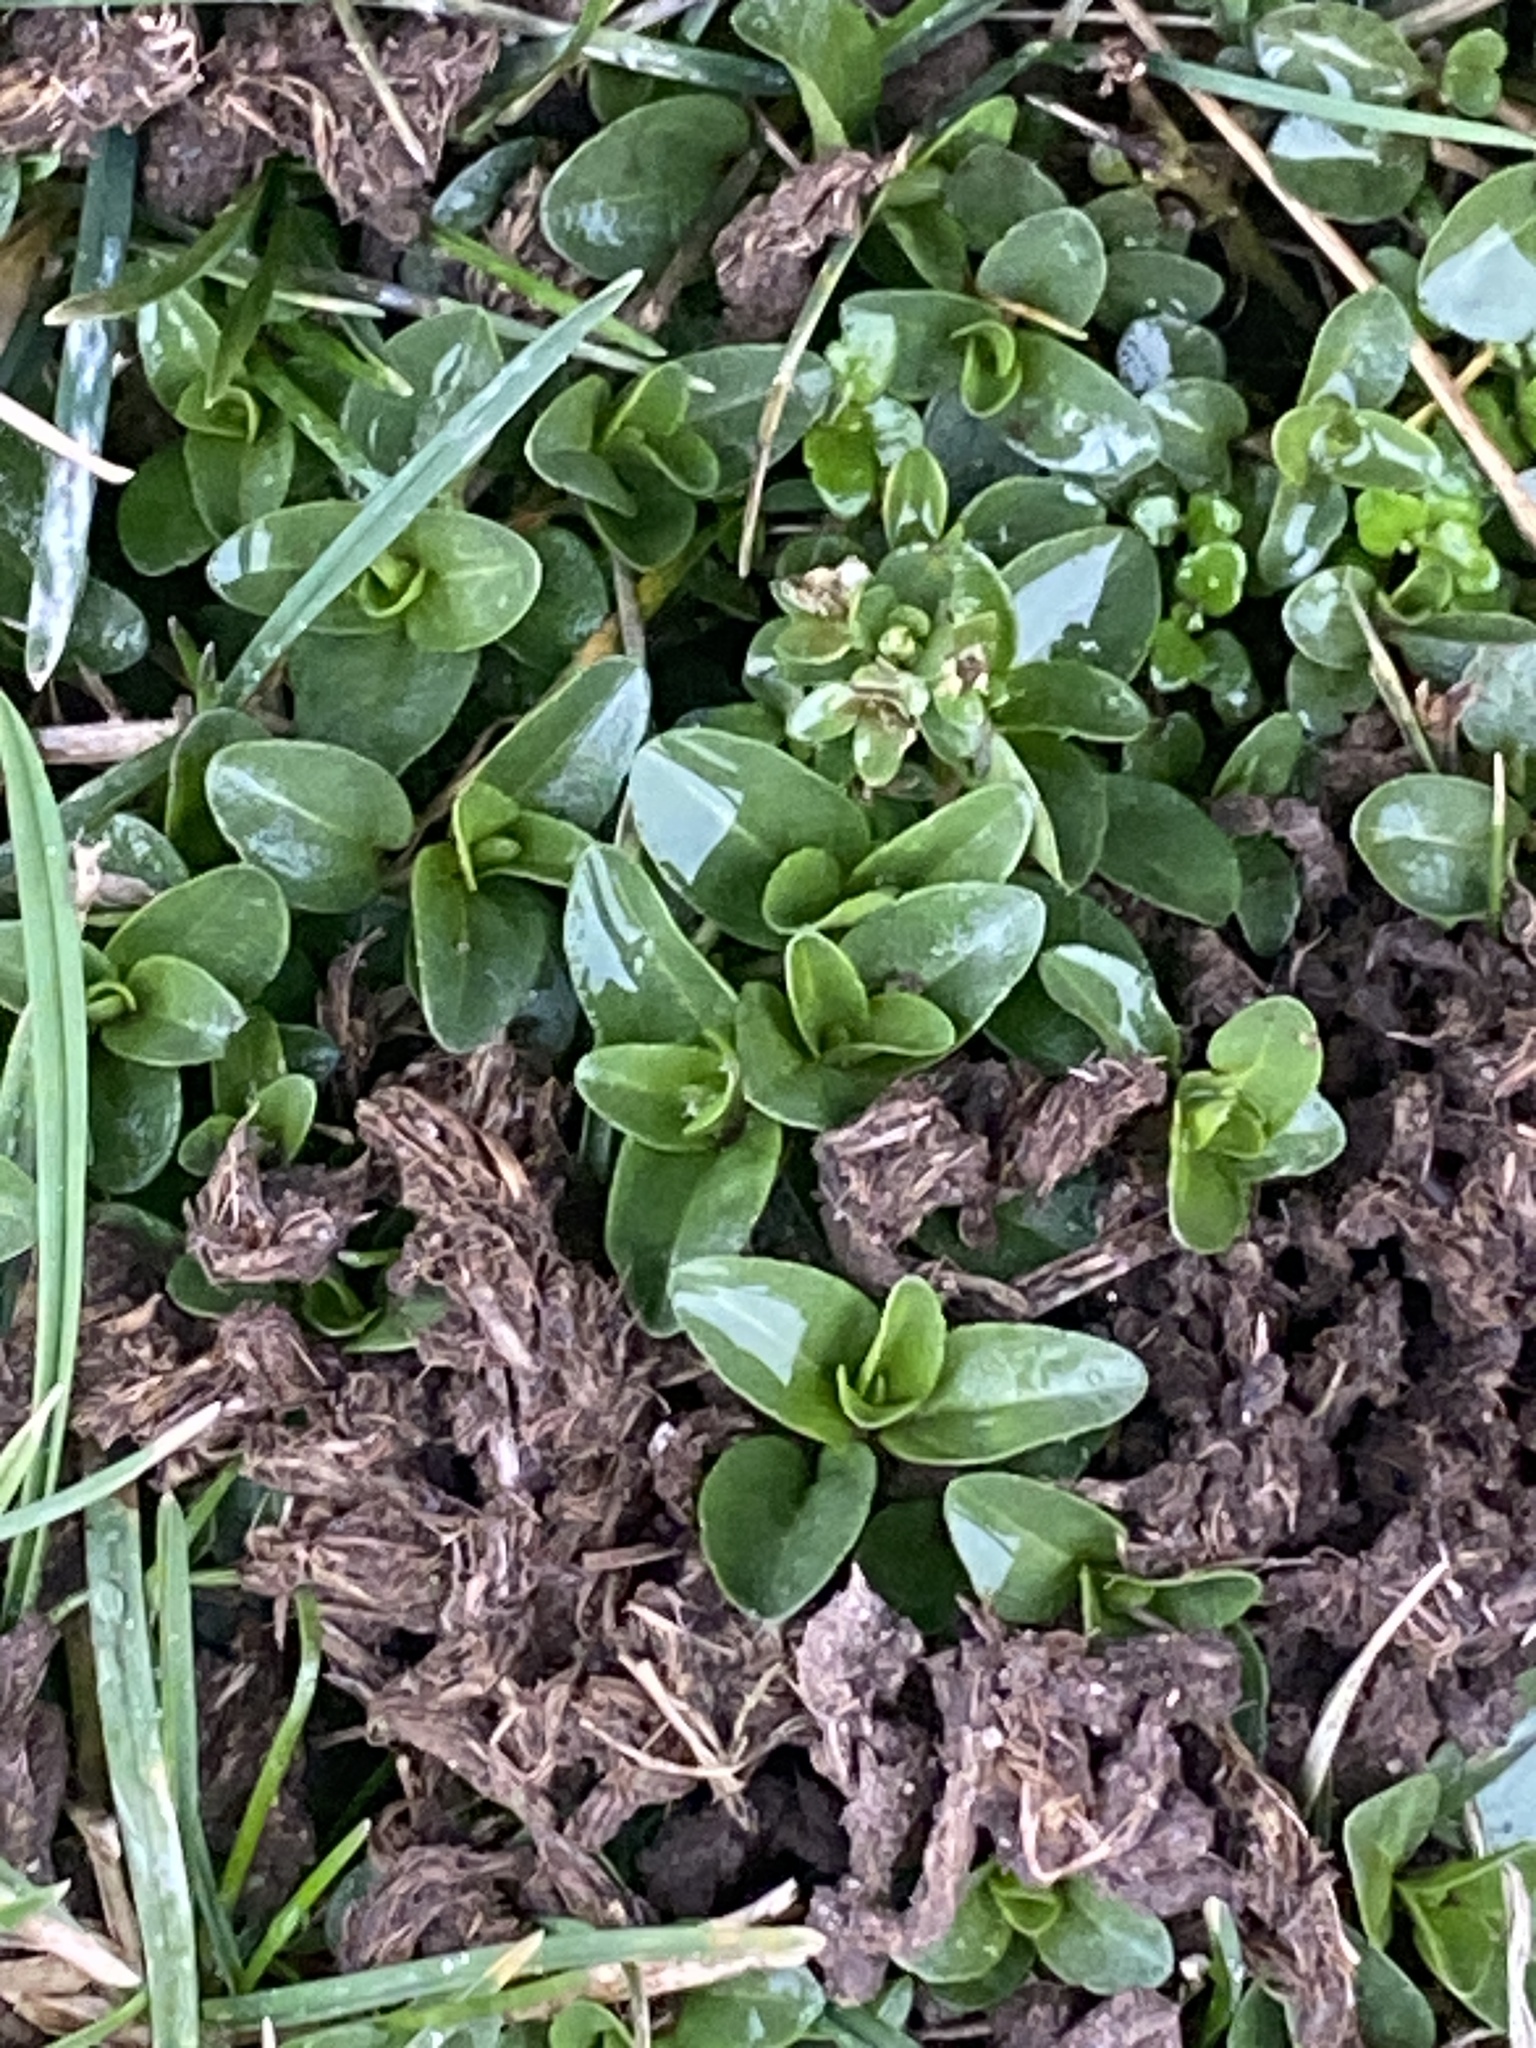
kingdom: Plantae
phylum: Tracheophyta
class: Magnoliopsida
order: Lamiales
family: Plantaginaceae
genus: Veronica
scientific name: Veronica serpyllifolia
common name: Thyme-leaved speedwell
